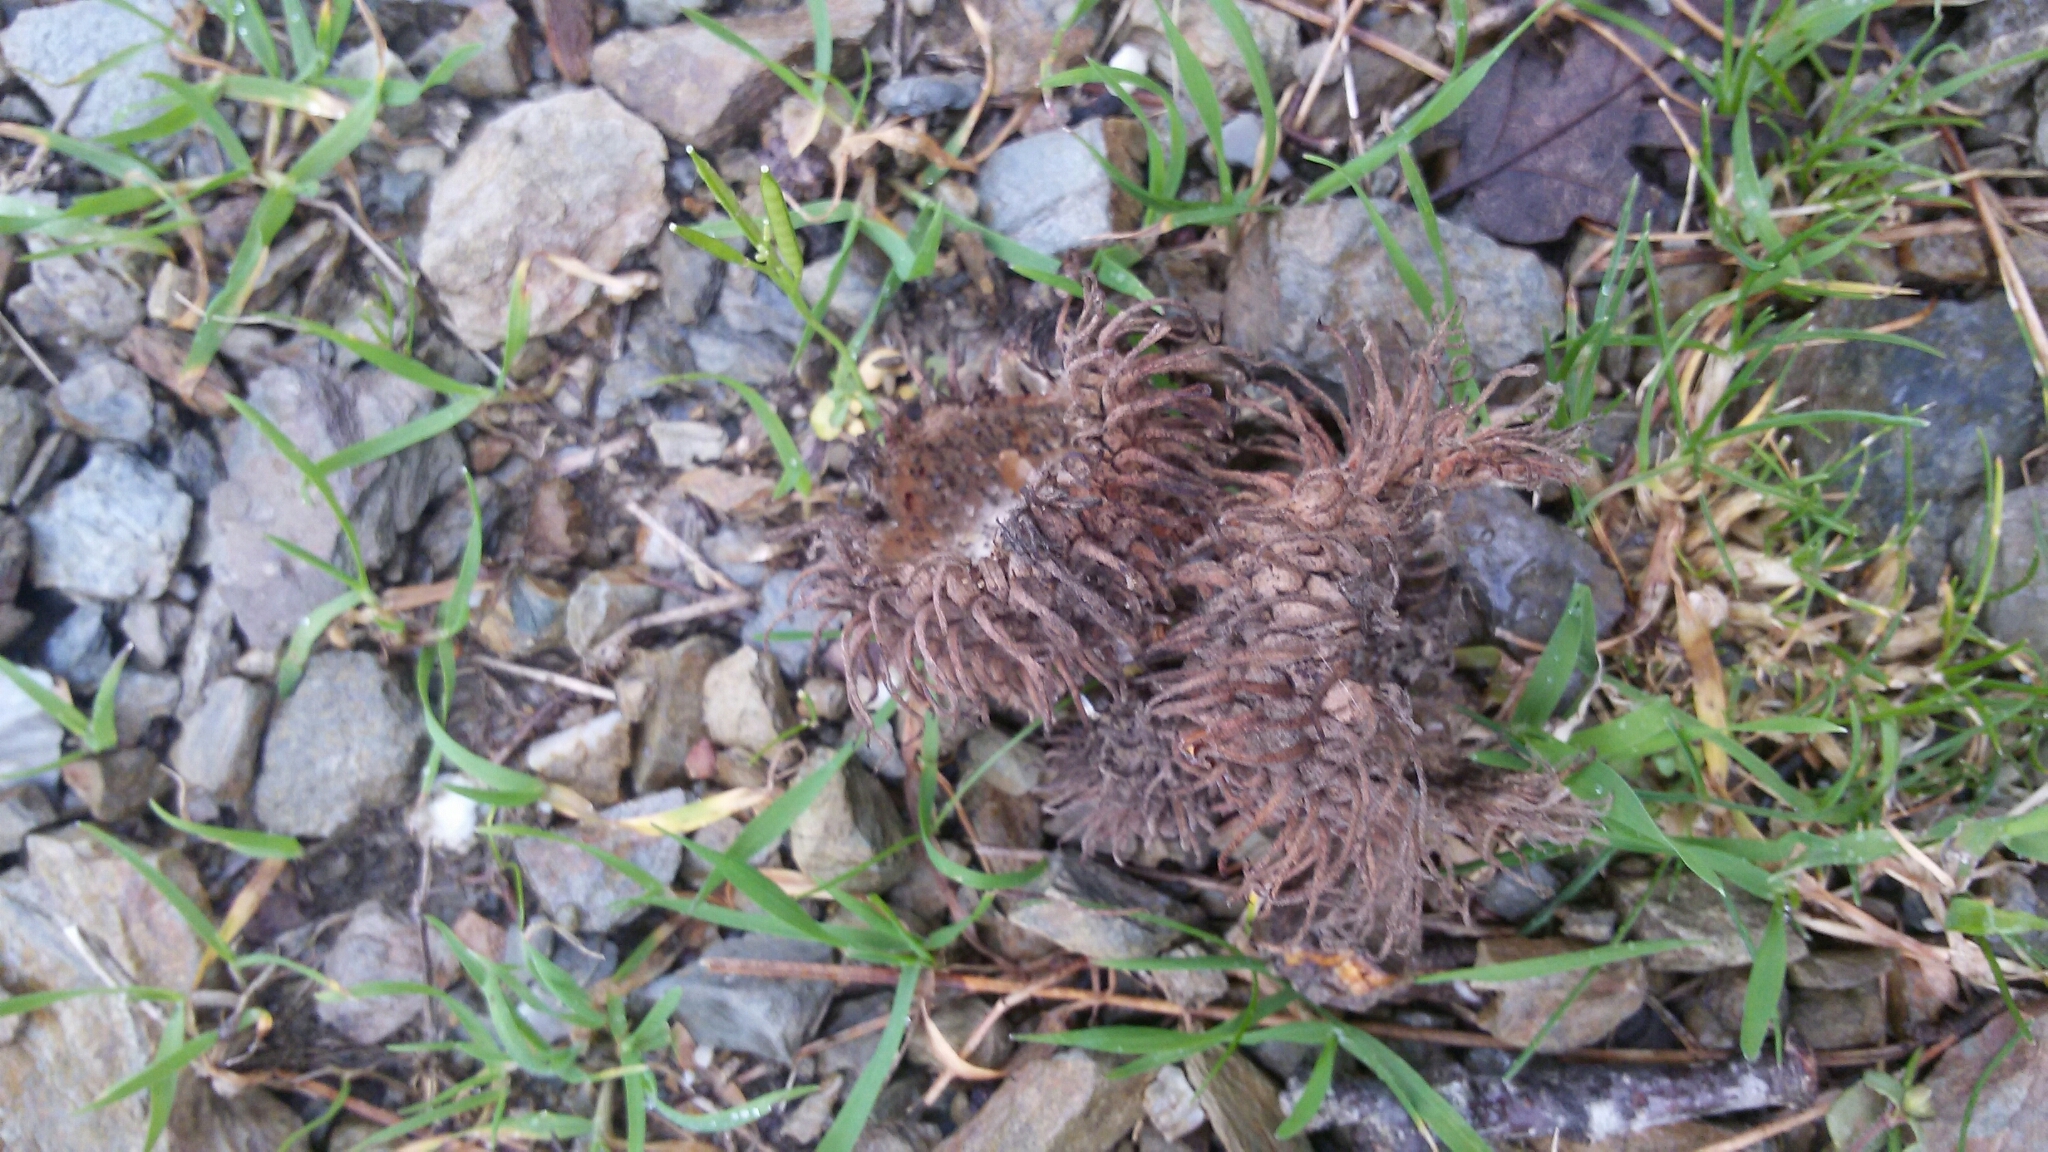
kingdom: Plantae
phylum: Tracheophyta
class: Magnoliopsida
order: Fagales
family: Fagaceae
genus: Quercus
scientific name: Quercus cerris
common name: Turkey oak
